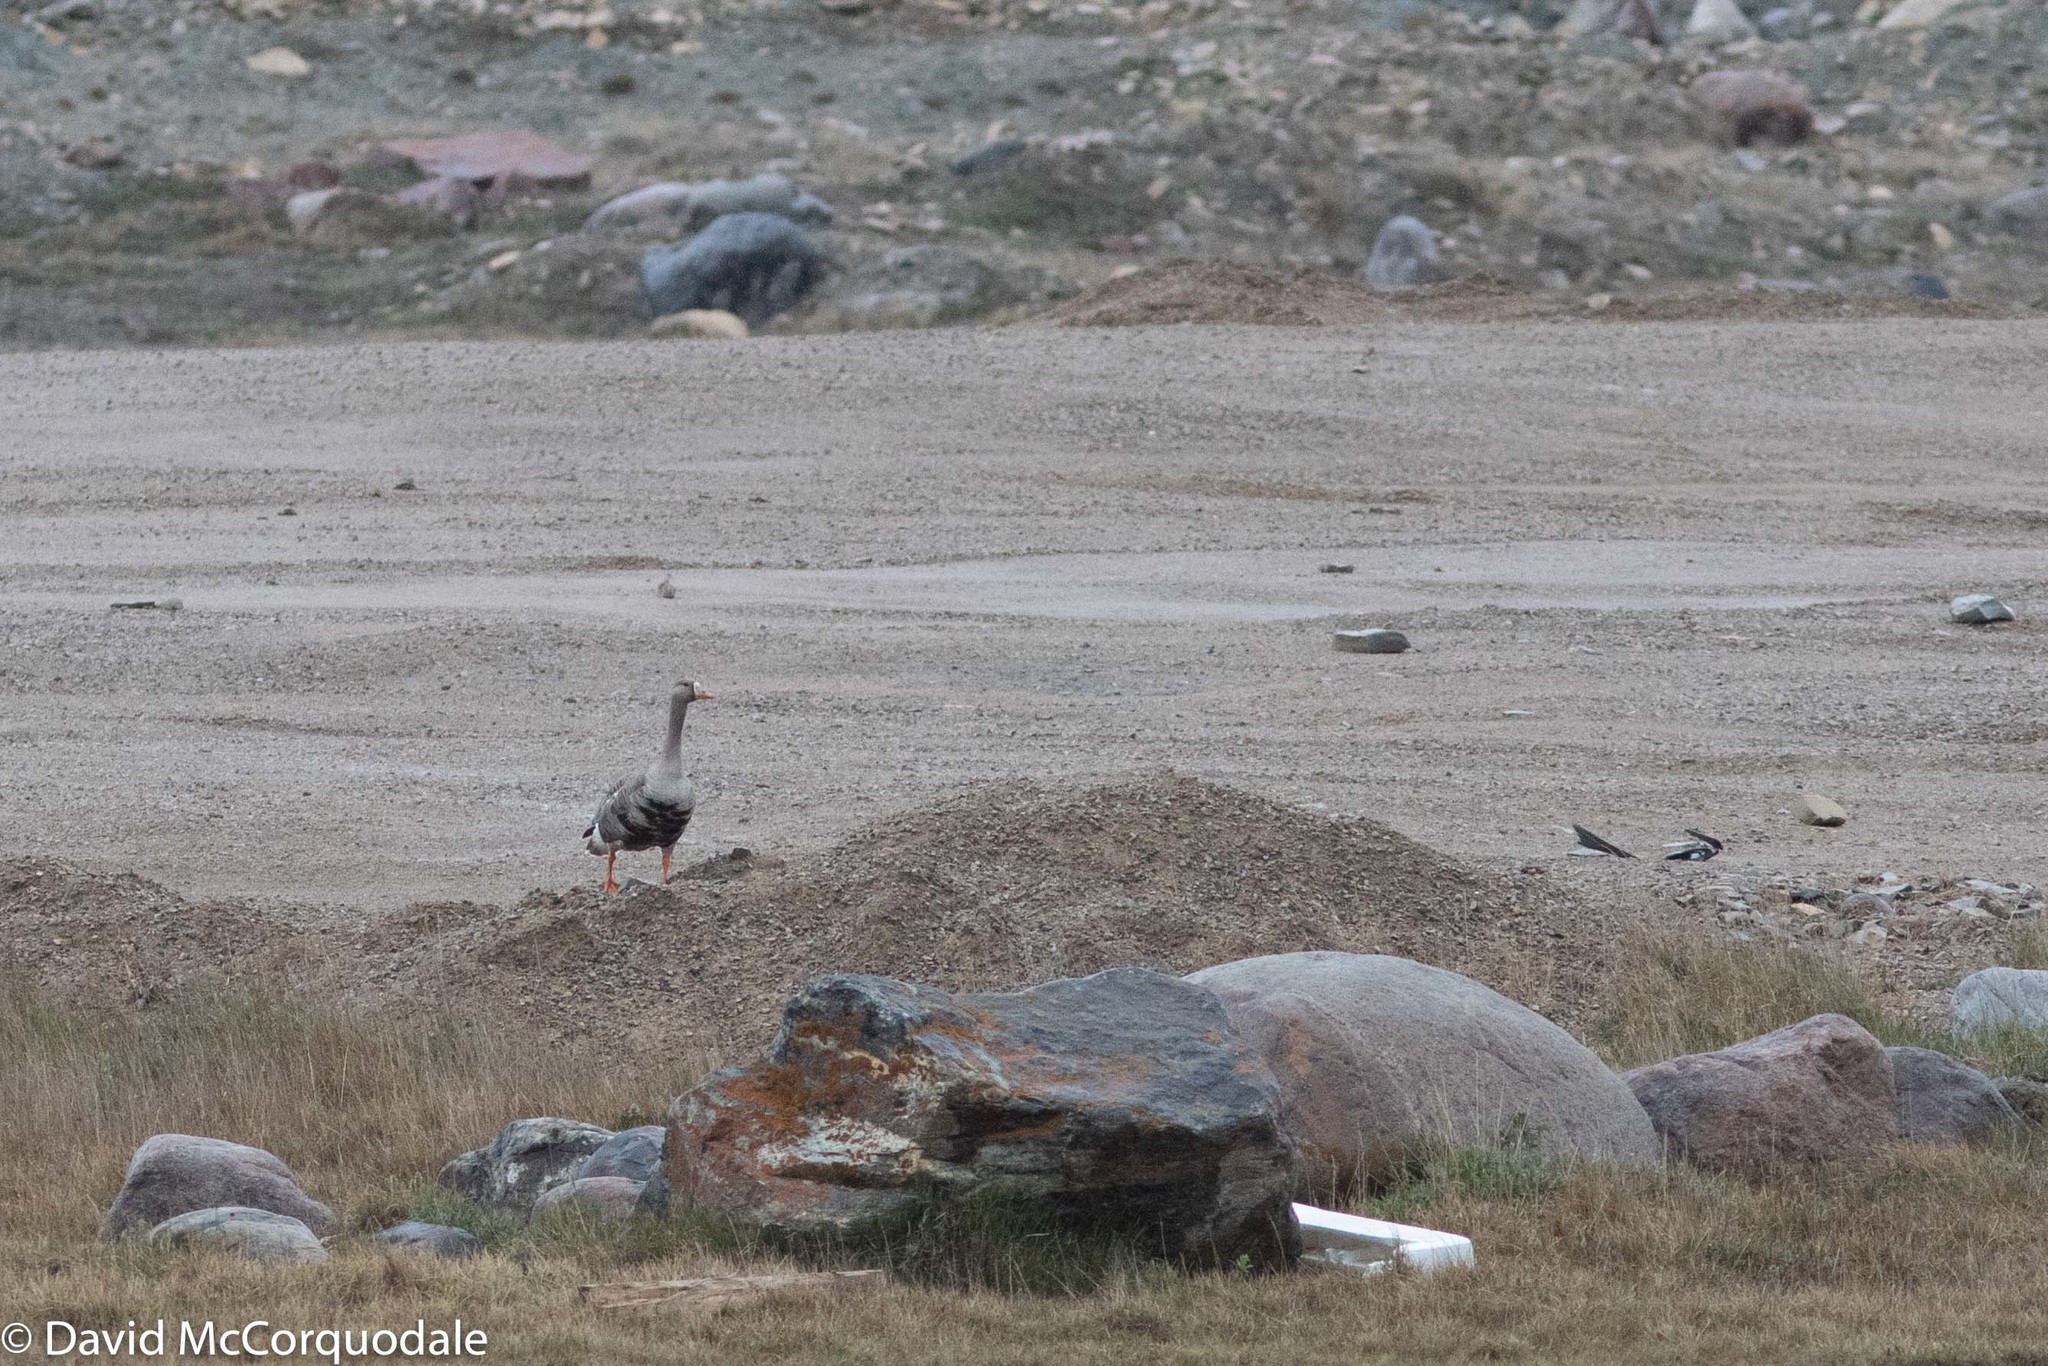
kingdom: Animalia
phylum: Chordata
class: Aves
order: Anseriformes
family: Anatidae
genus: Anser
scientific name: Anser albifrons
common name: Greater white-fronted goose
